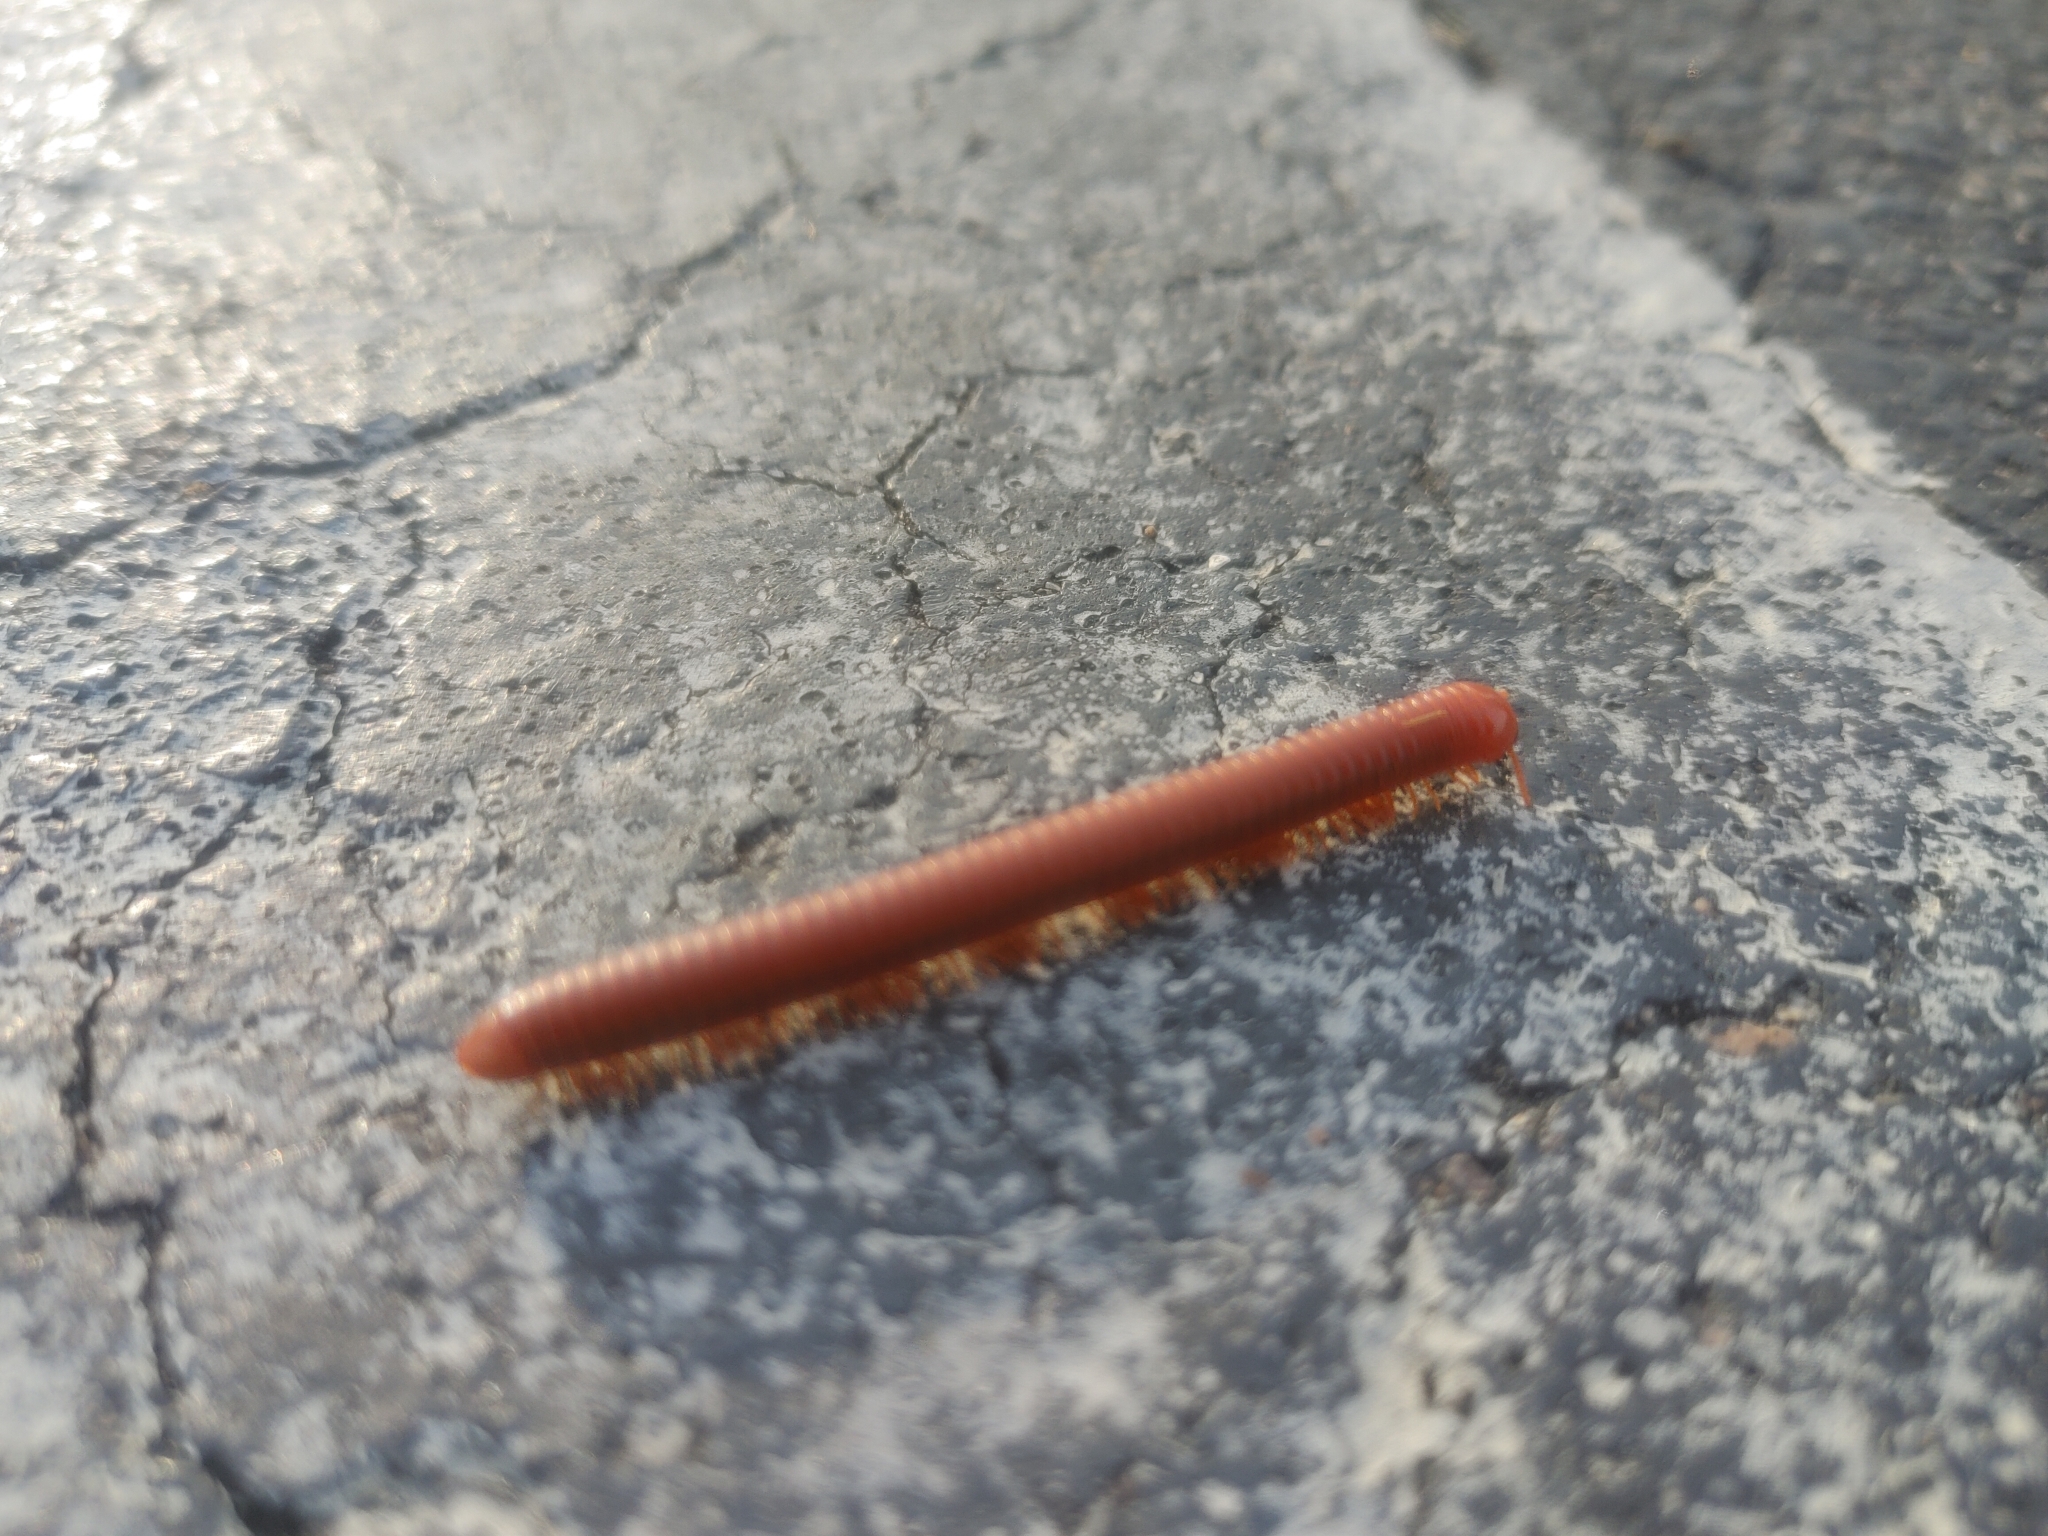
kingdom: Animalia
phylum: Arthropoda
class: Diplopoda
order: Spirobolida
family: Pachybolidae
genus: Trigoniulus
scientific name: Trigoniulus corallinus
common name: Millipede
